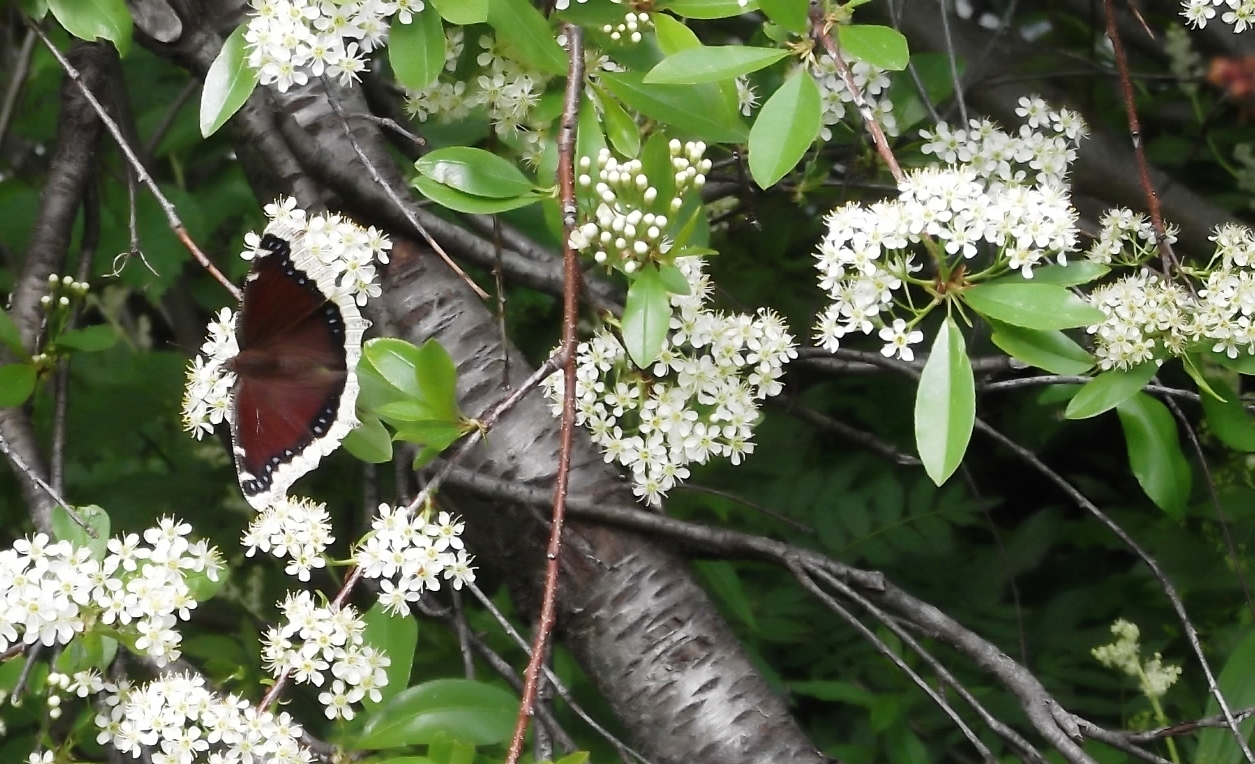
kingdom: Plantae
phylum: Tracheophyta
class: Magnoliopsida
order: Rosales
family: Rosaceae
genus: Prunus
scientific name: Prunus emarginata
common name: Bitter cherry
